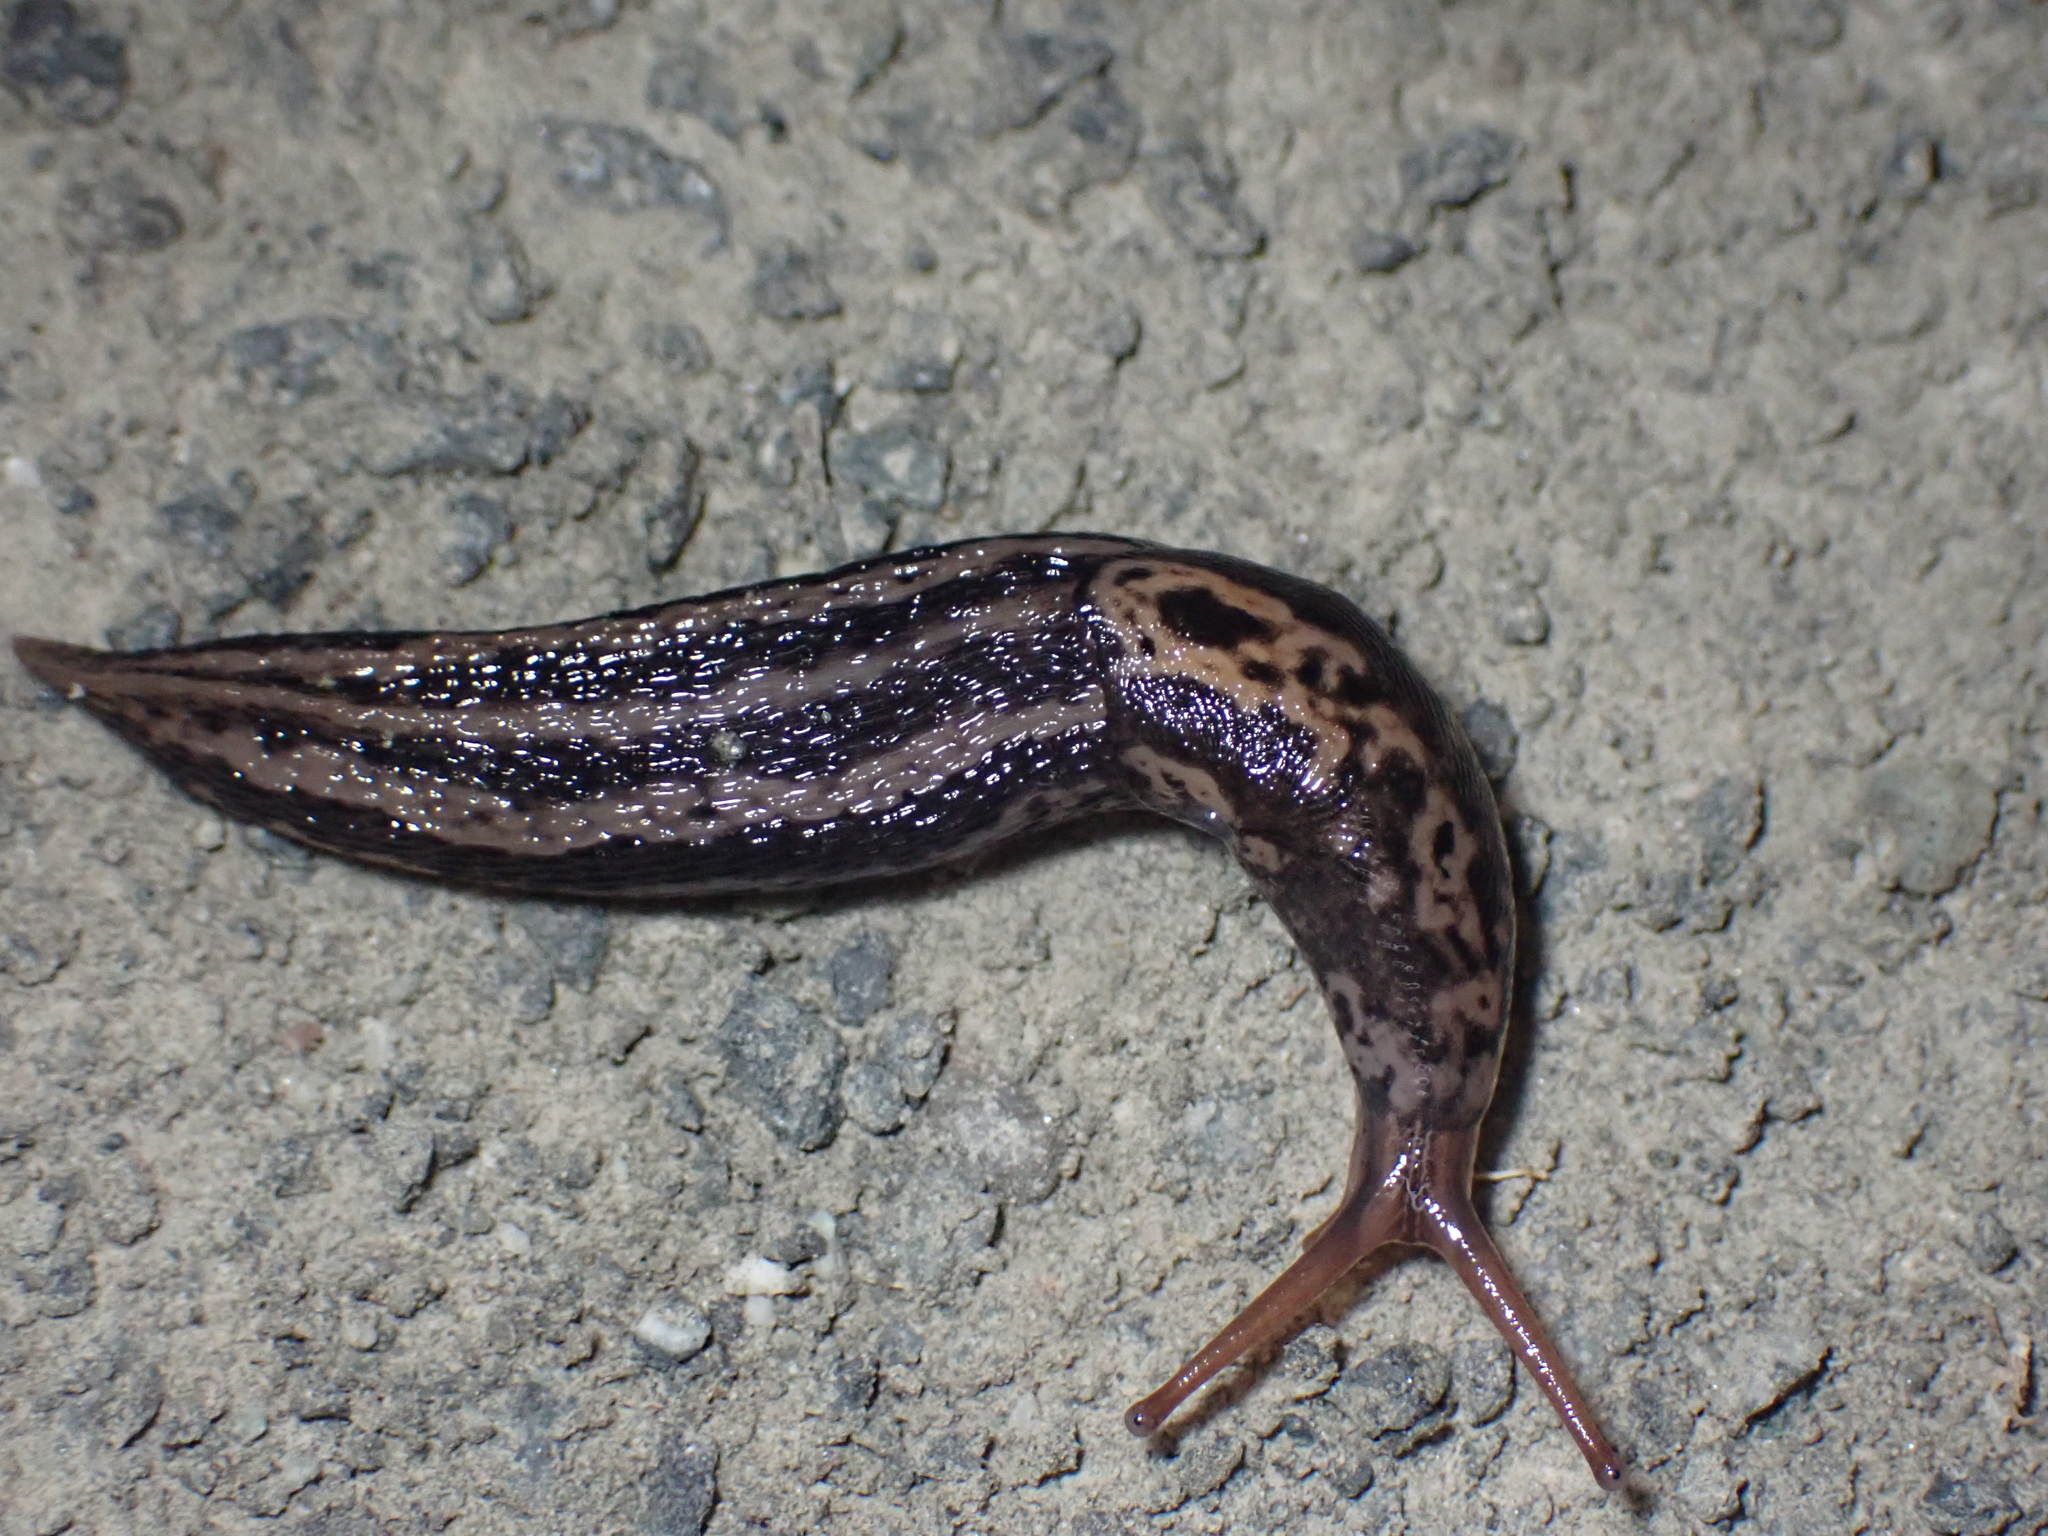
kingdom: Animalia
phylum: Mollusca
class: Gastropoda
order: Stylommatophora
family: Limacidae
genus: Limax
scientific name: Limax maximus
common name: Great grey slug
